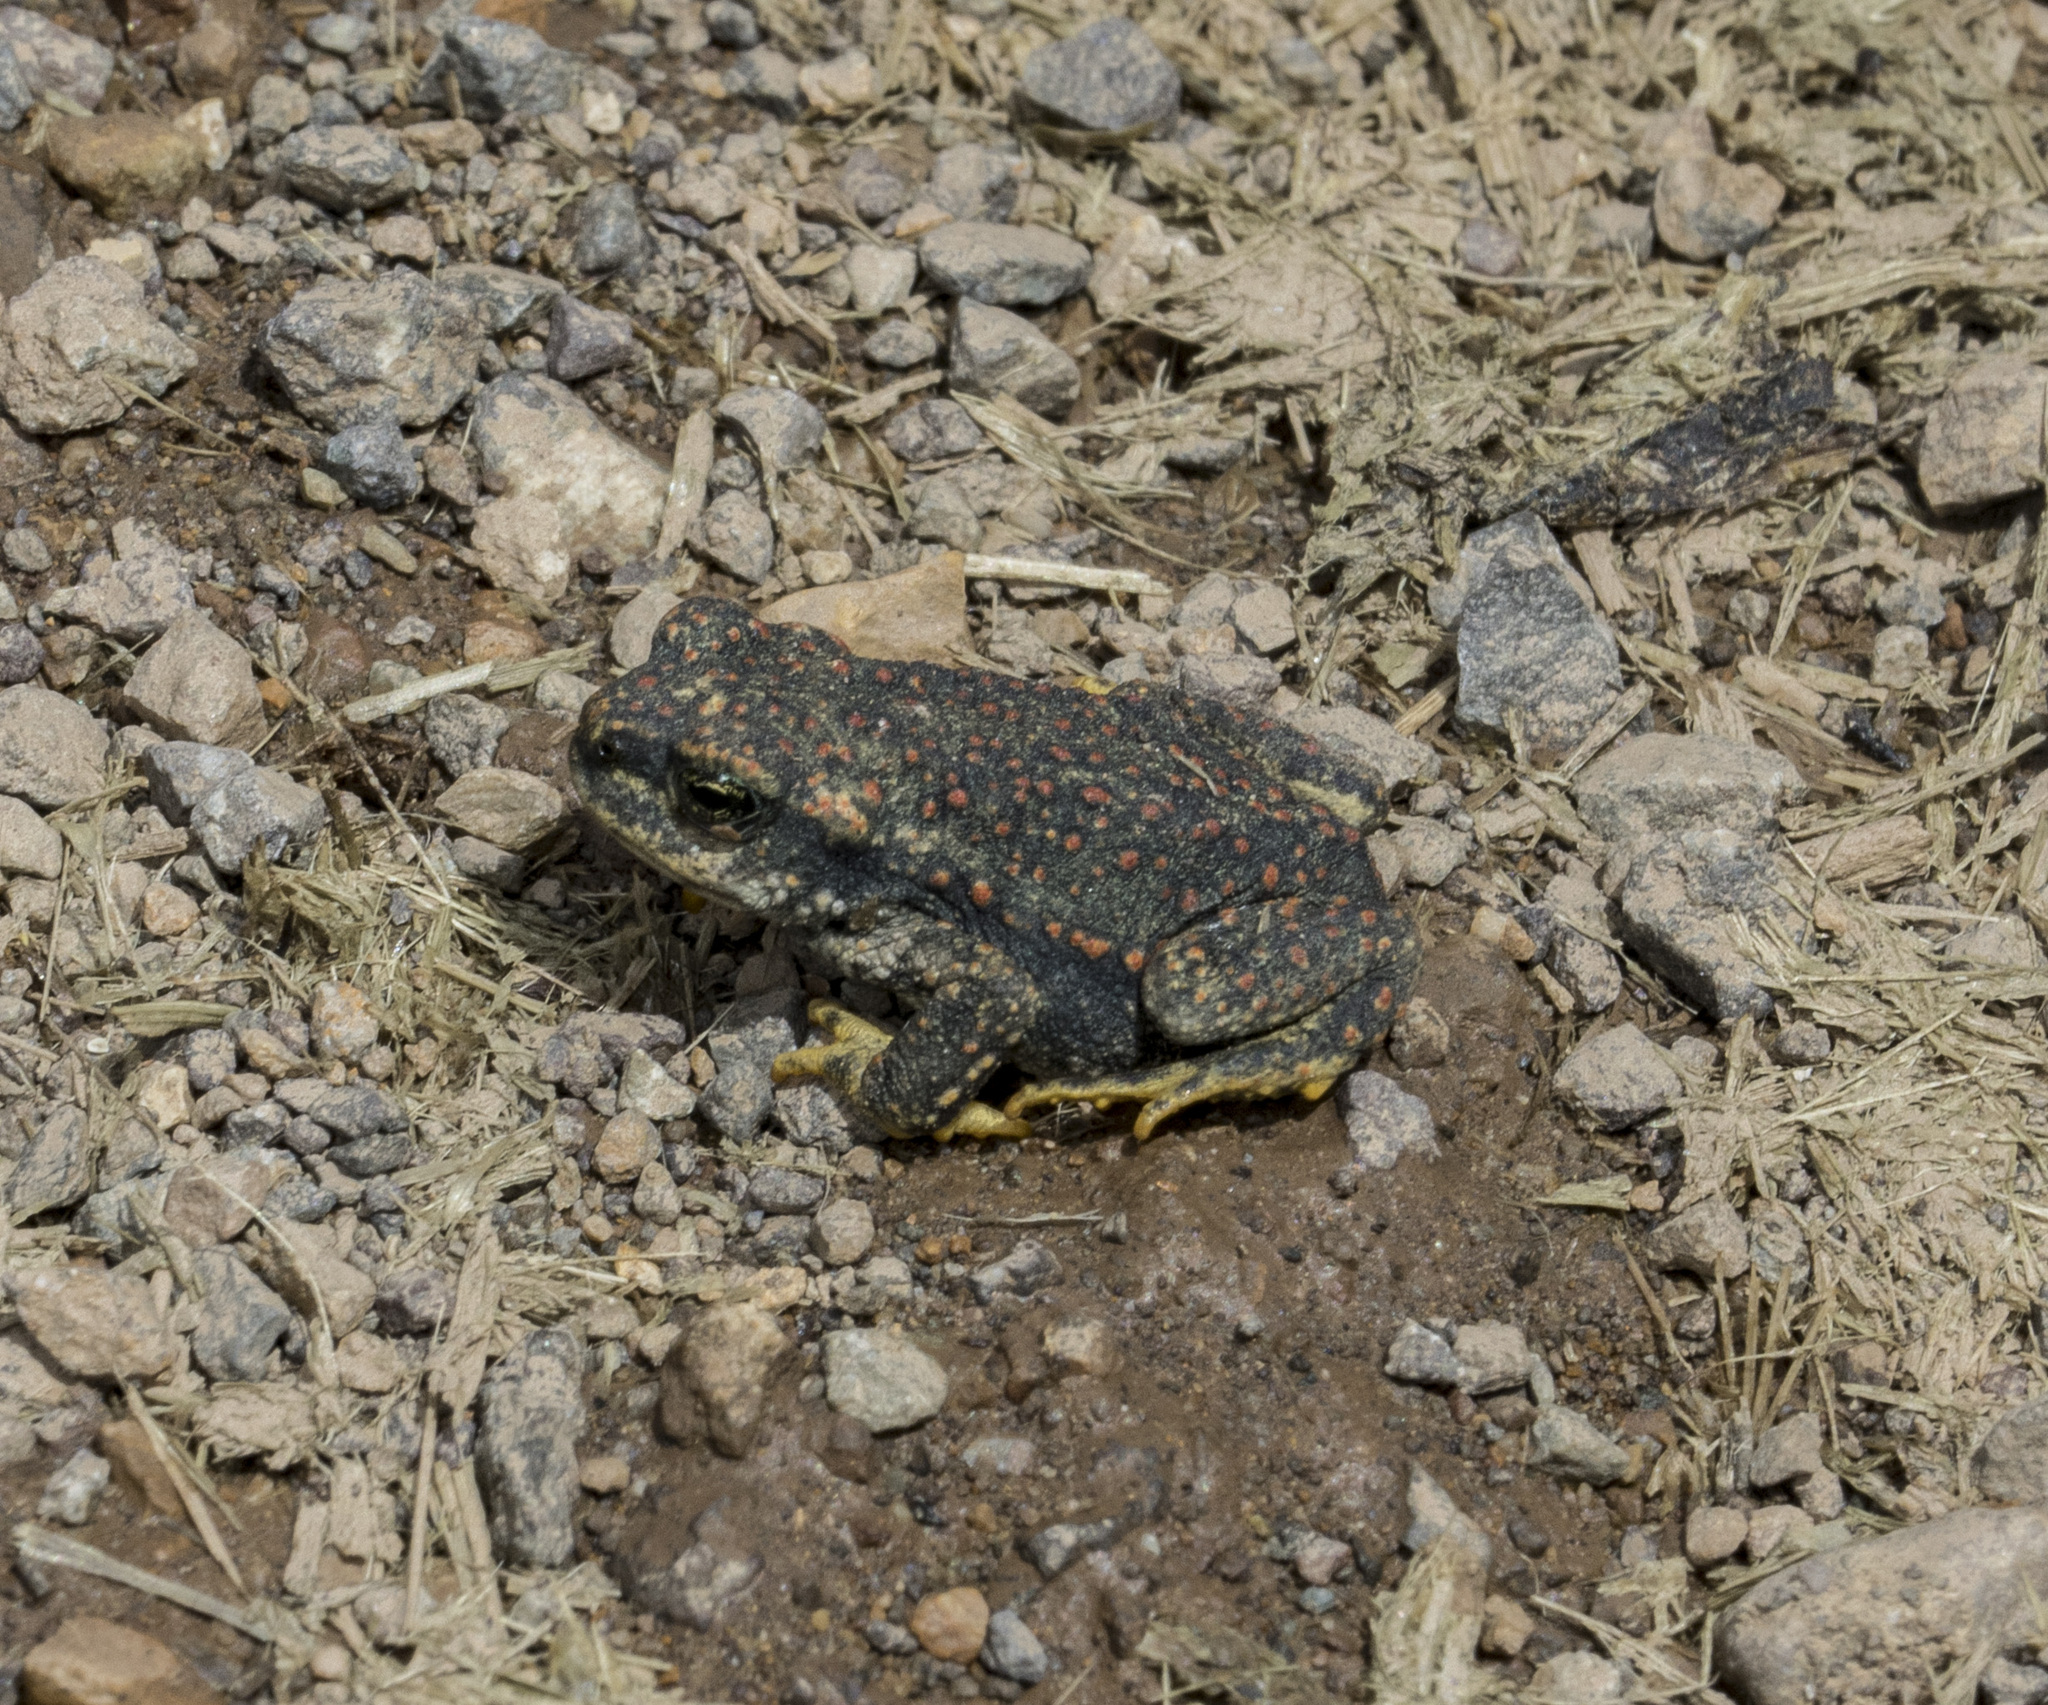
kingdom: Animalia
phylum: Chordata
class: Amphibia
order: Anura
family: Bufonidae
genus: Rhinella
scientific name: Rhinella spinulosa
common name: Warty toad
